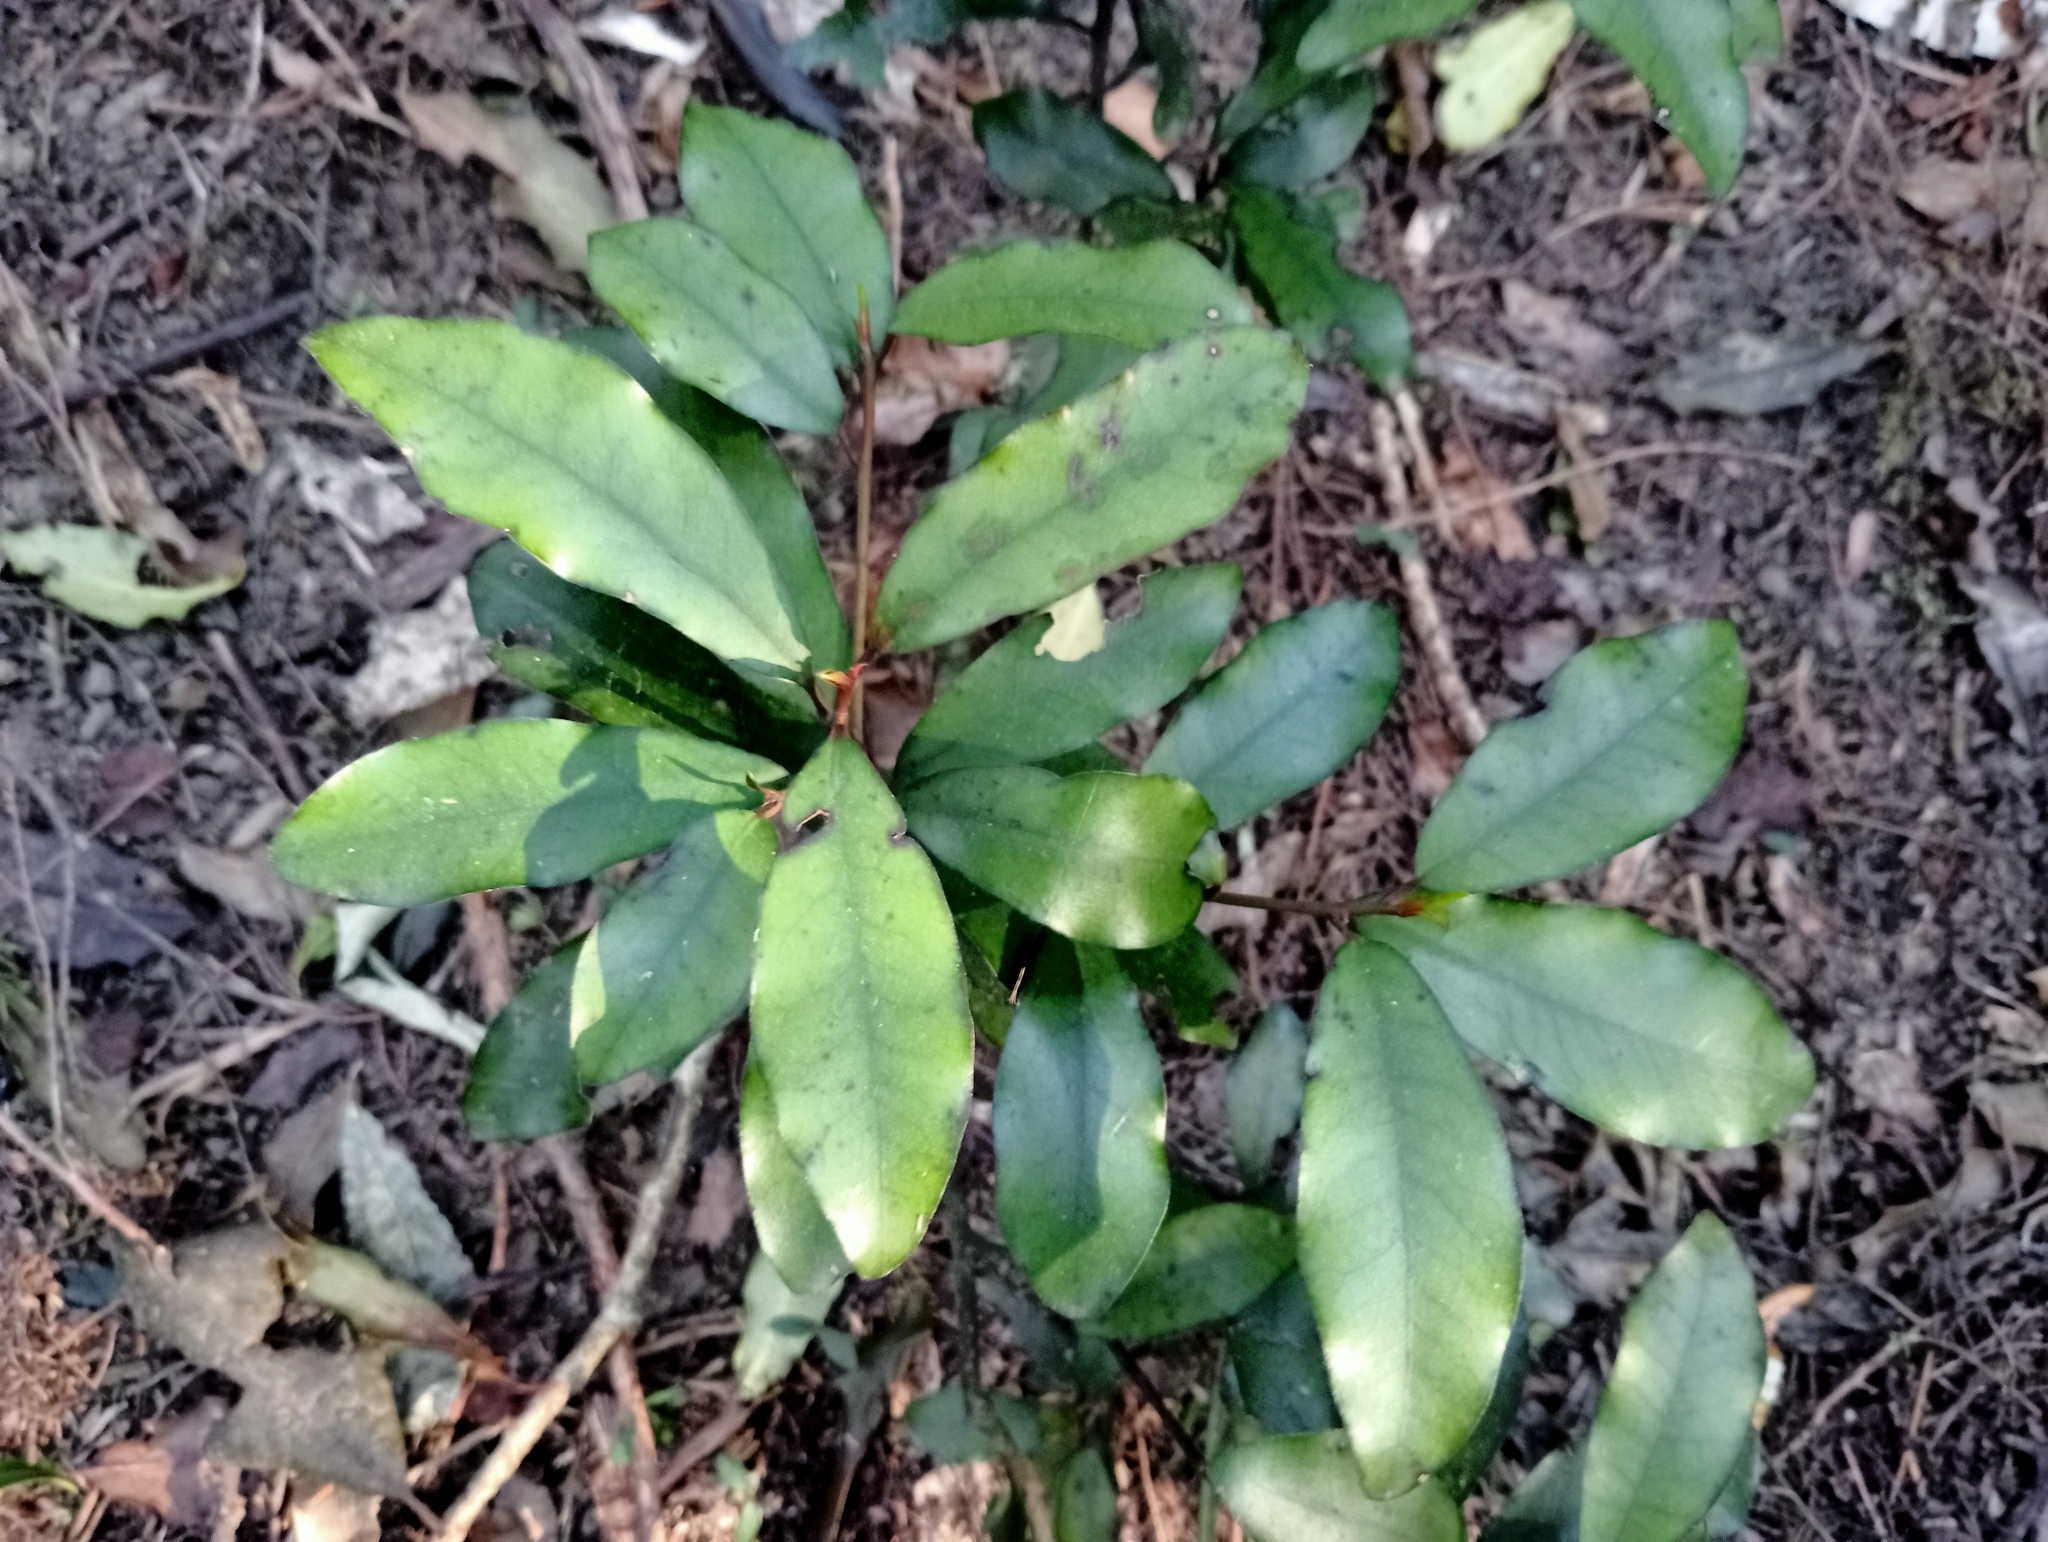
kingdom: Plantae
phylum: Tracheophyta
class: Magnoliopsida
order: Canellales
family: Winteraceae
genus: Pseudowintera
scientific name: Pseudowintera colorata
